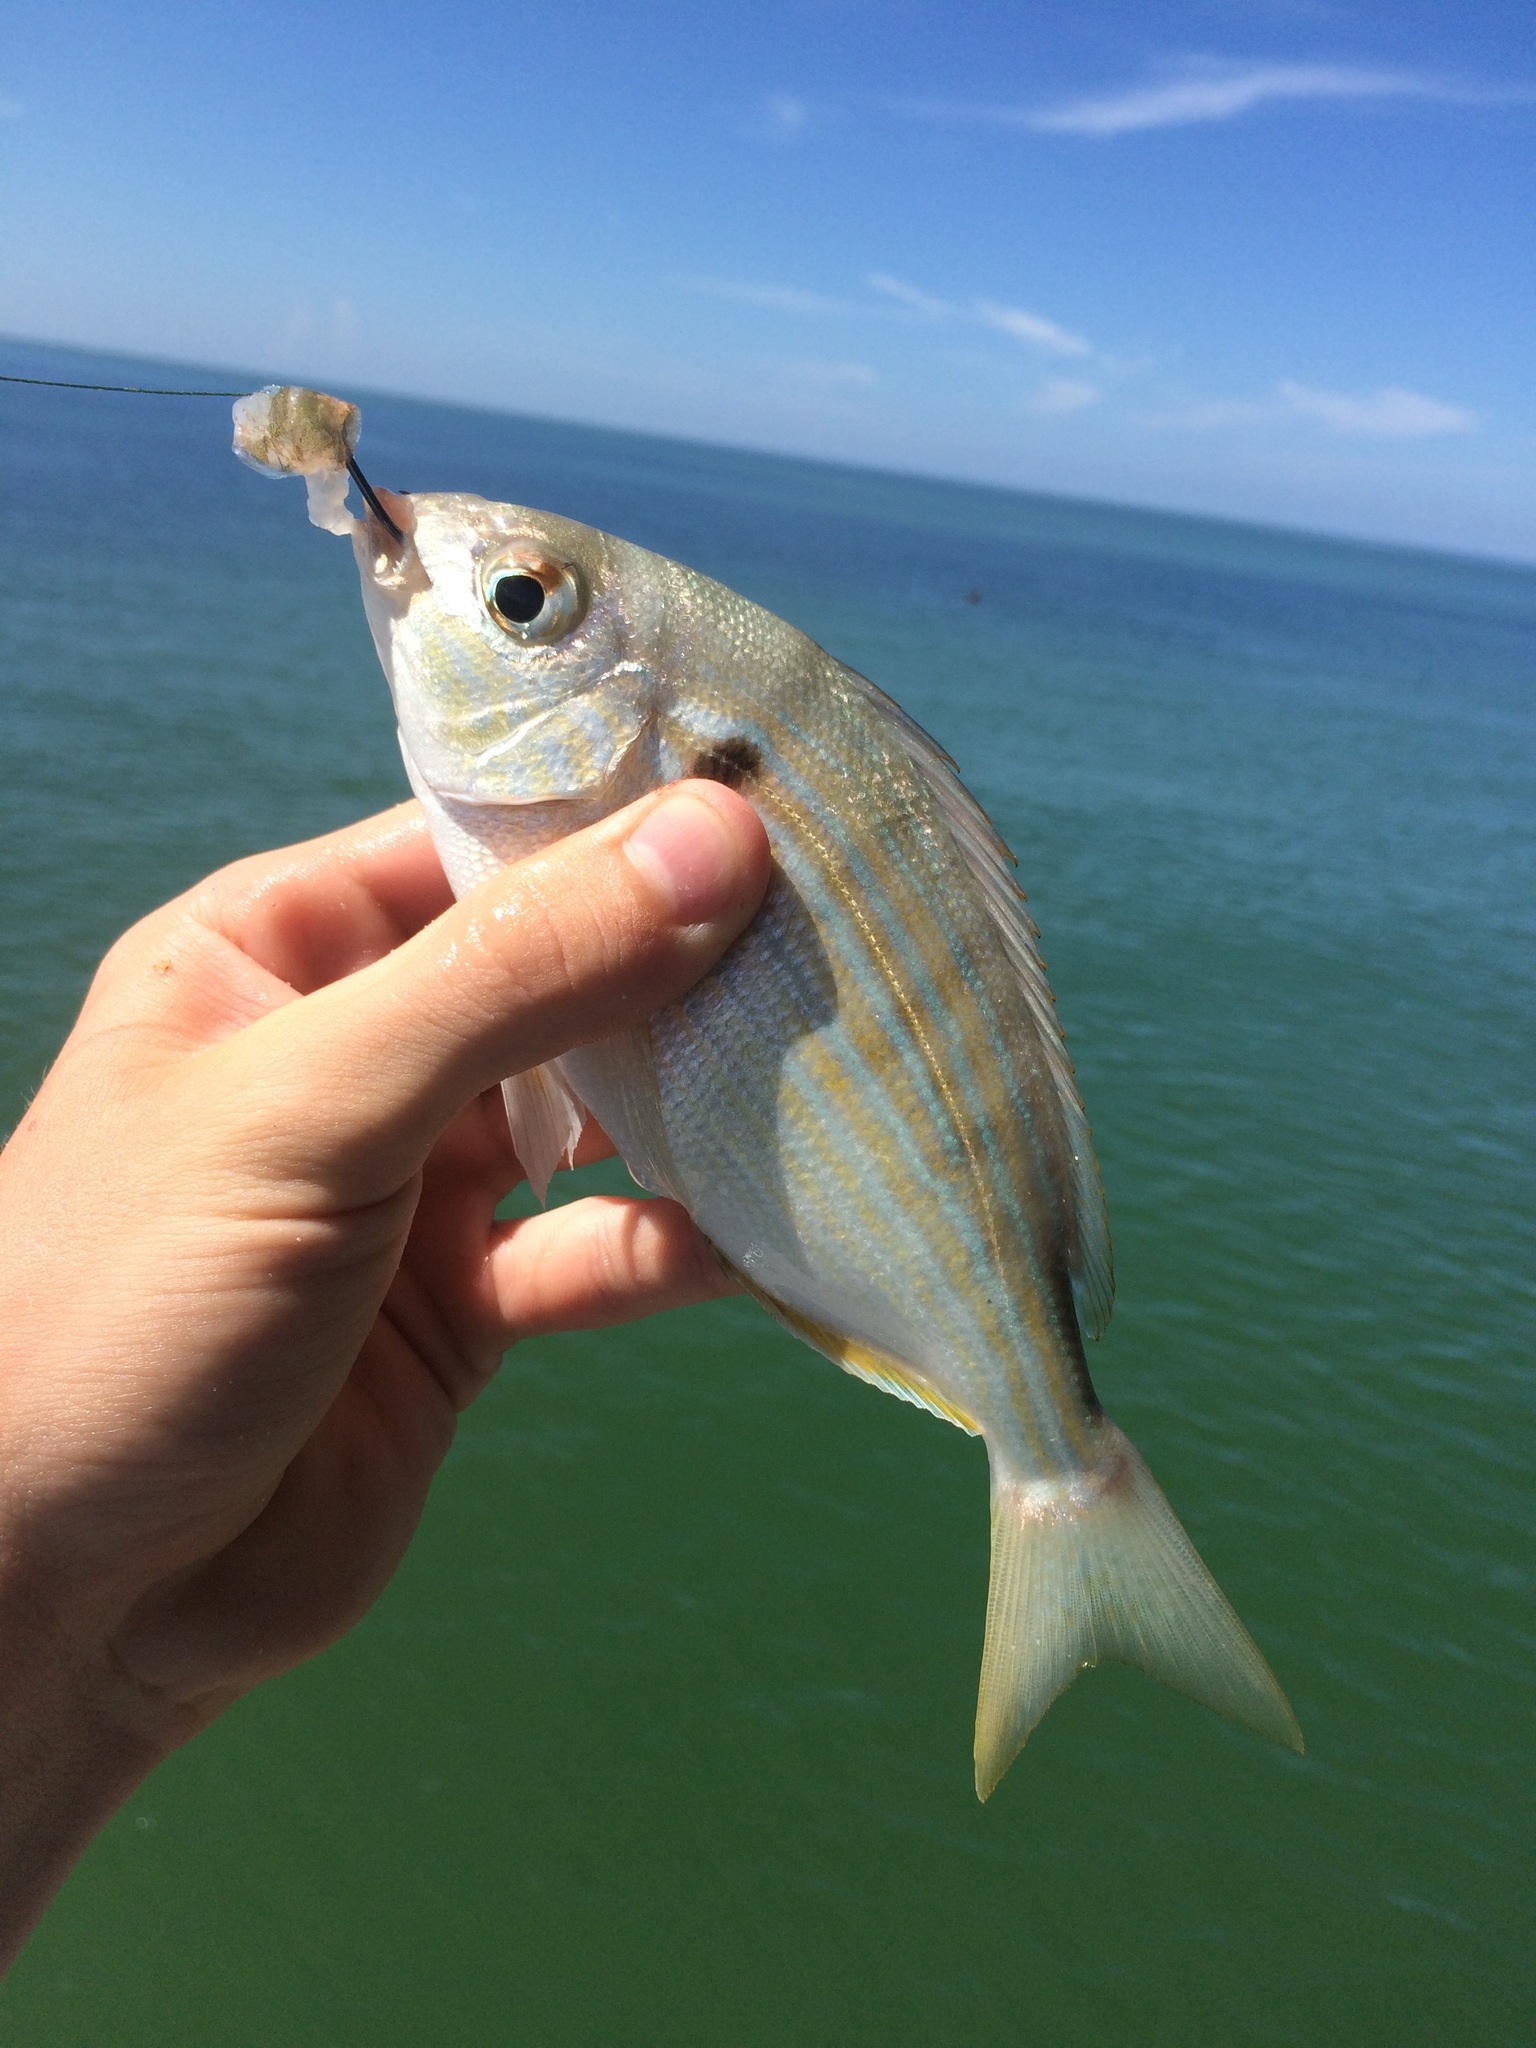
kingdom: Animalia
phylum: Chordata
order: Perciformes
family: Sparidae
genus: Lagodon
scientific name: Lagodon rhomboides
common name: Pinfish
